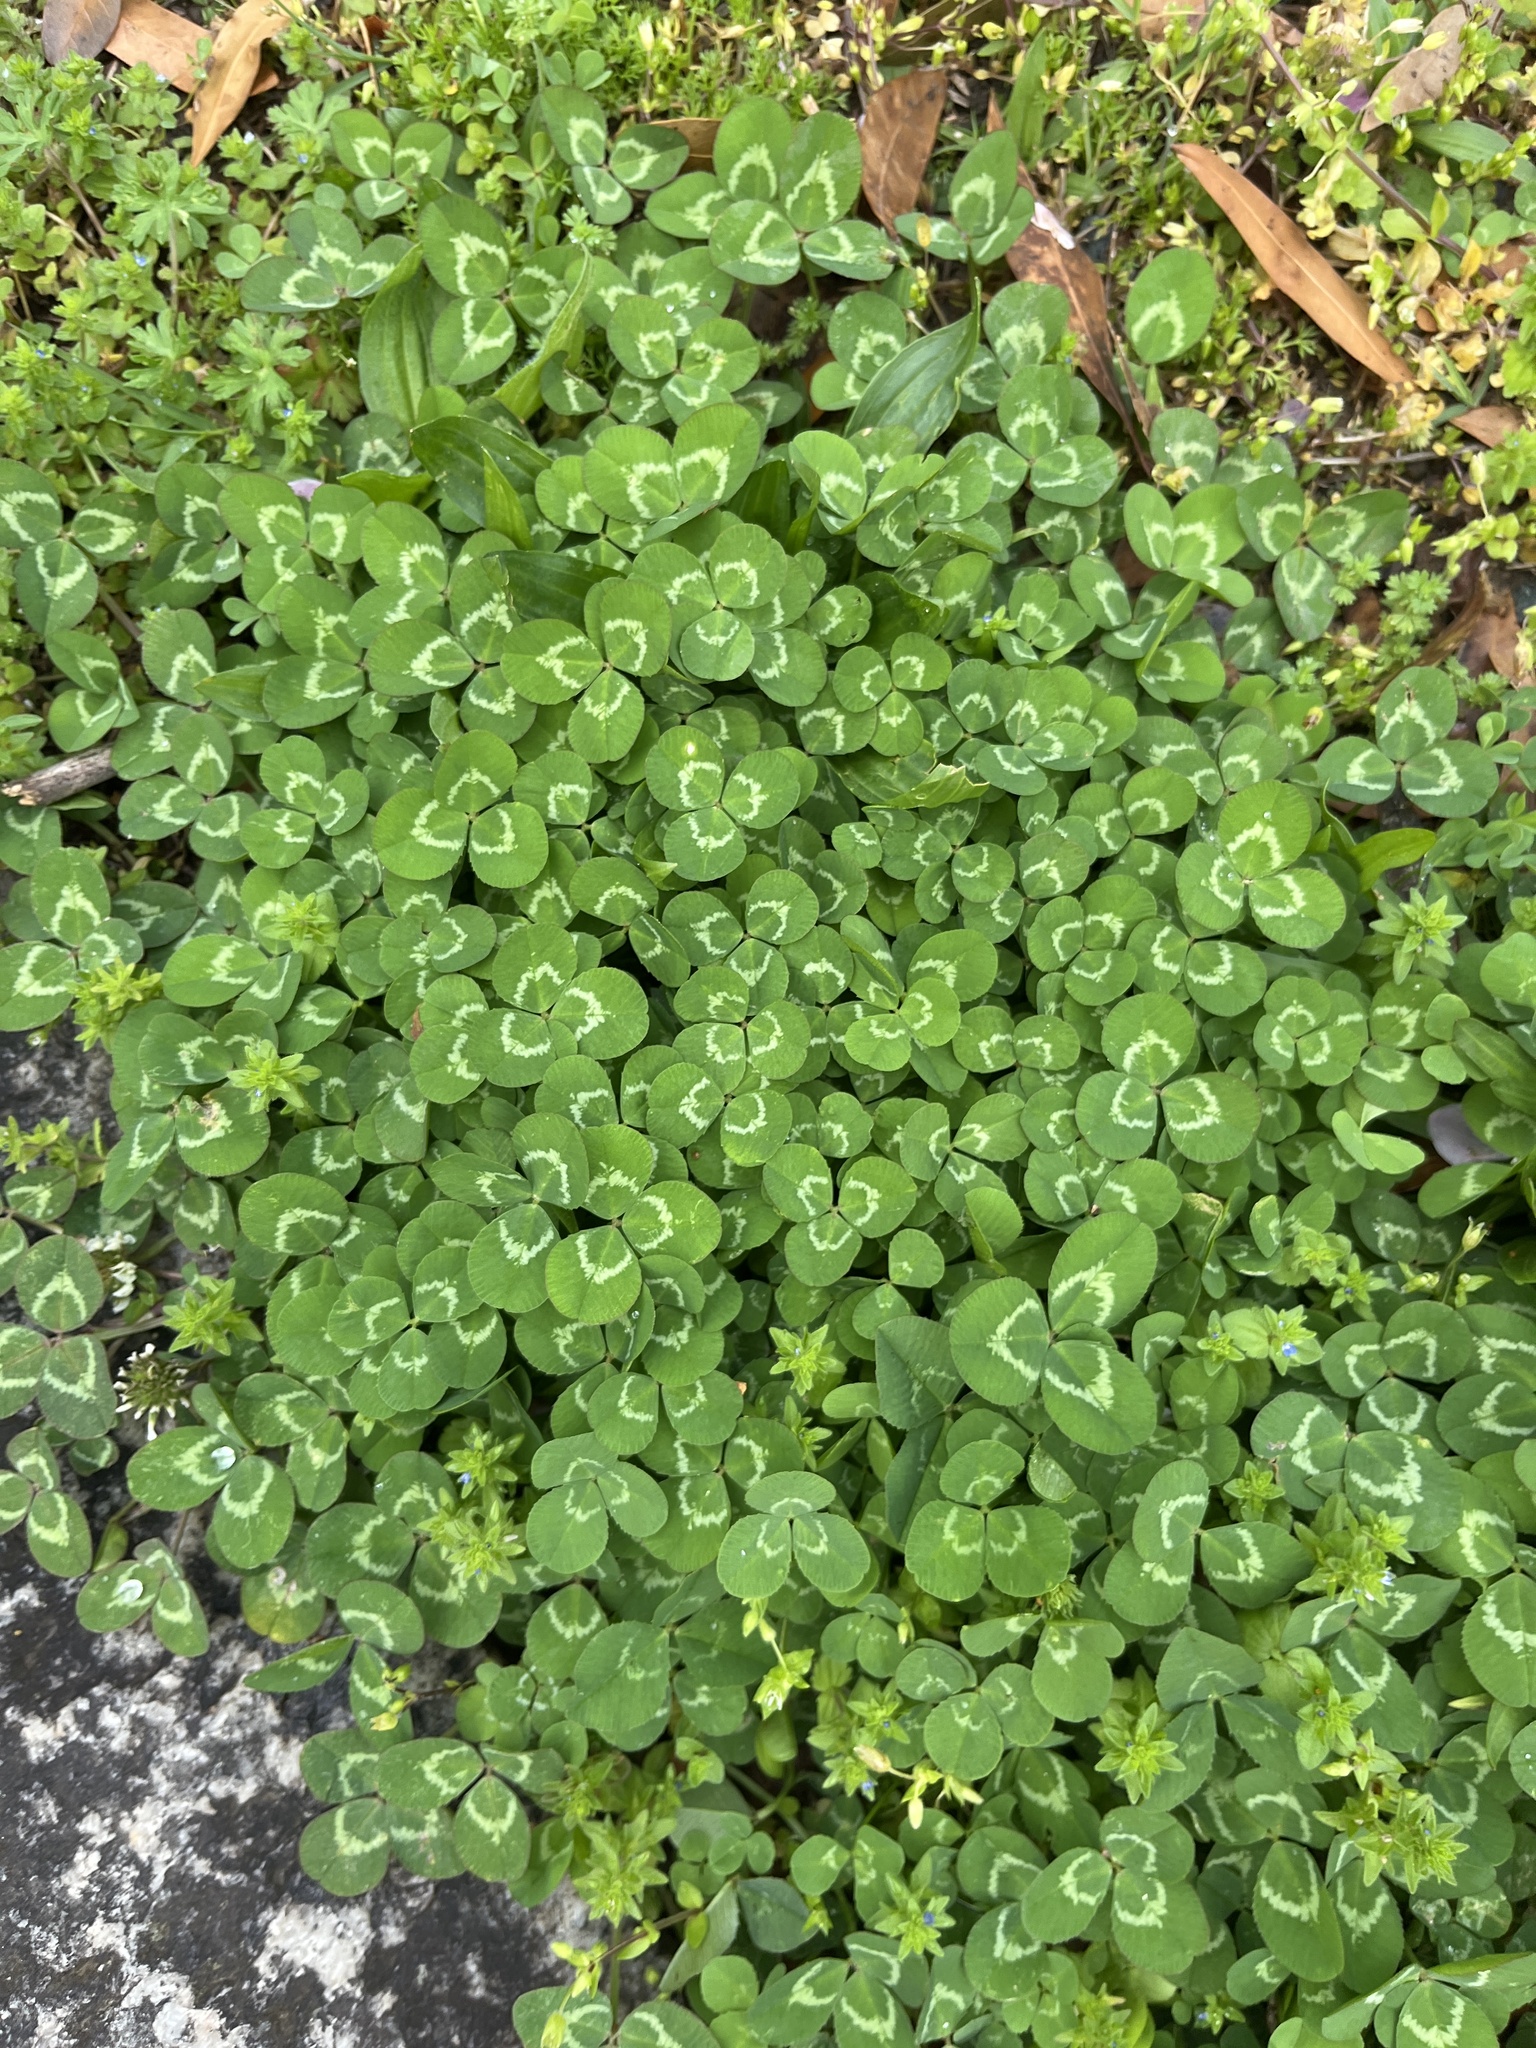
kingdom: Plantae
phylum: Tracheophyta
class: Magnoliopsida
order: Fabales
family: Fabaceae
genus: Trifolium
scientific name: Trifolium repens
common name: White clover
